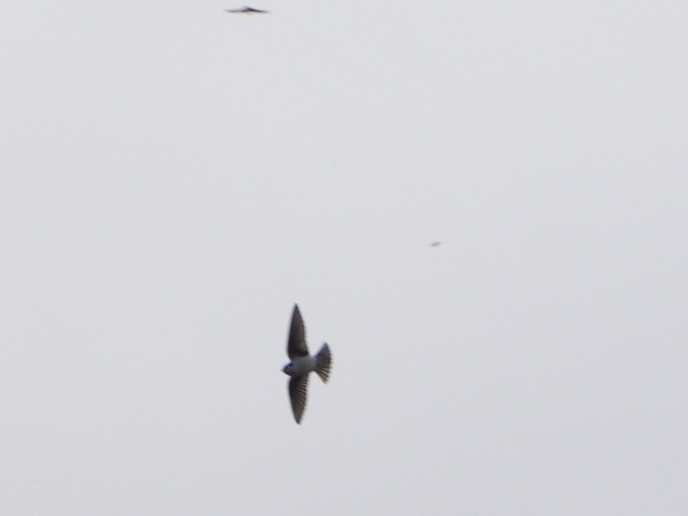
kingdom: Animalia
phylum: Chordata
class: Aves
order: Passeriformes
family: Hirundinidae
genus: Tachycineta
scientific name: Tachycineta thalassina
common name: Violet-green swallow
